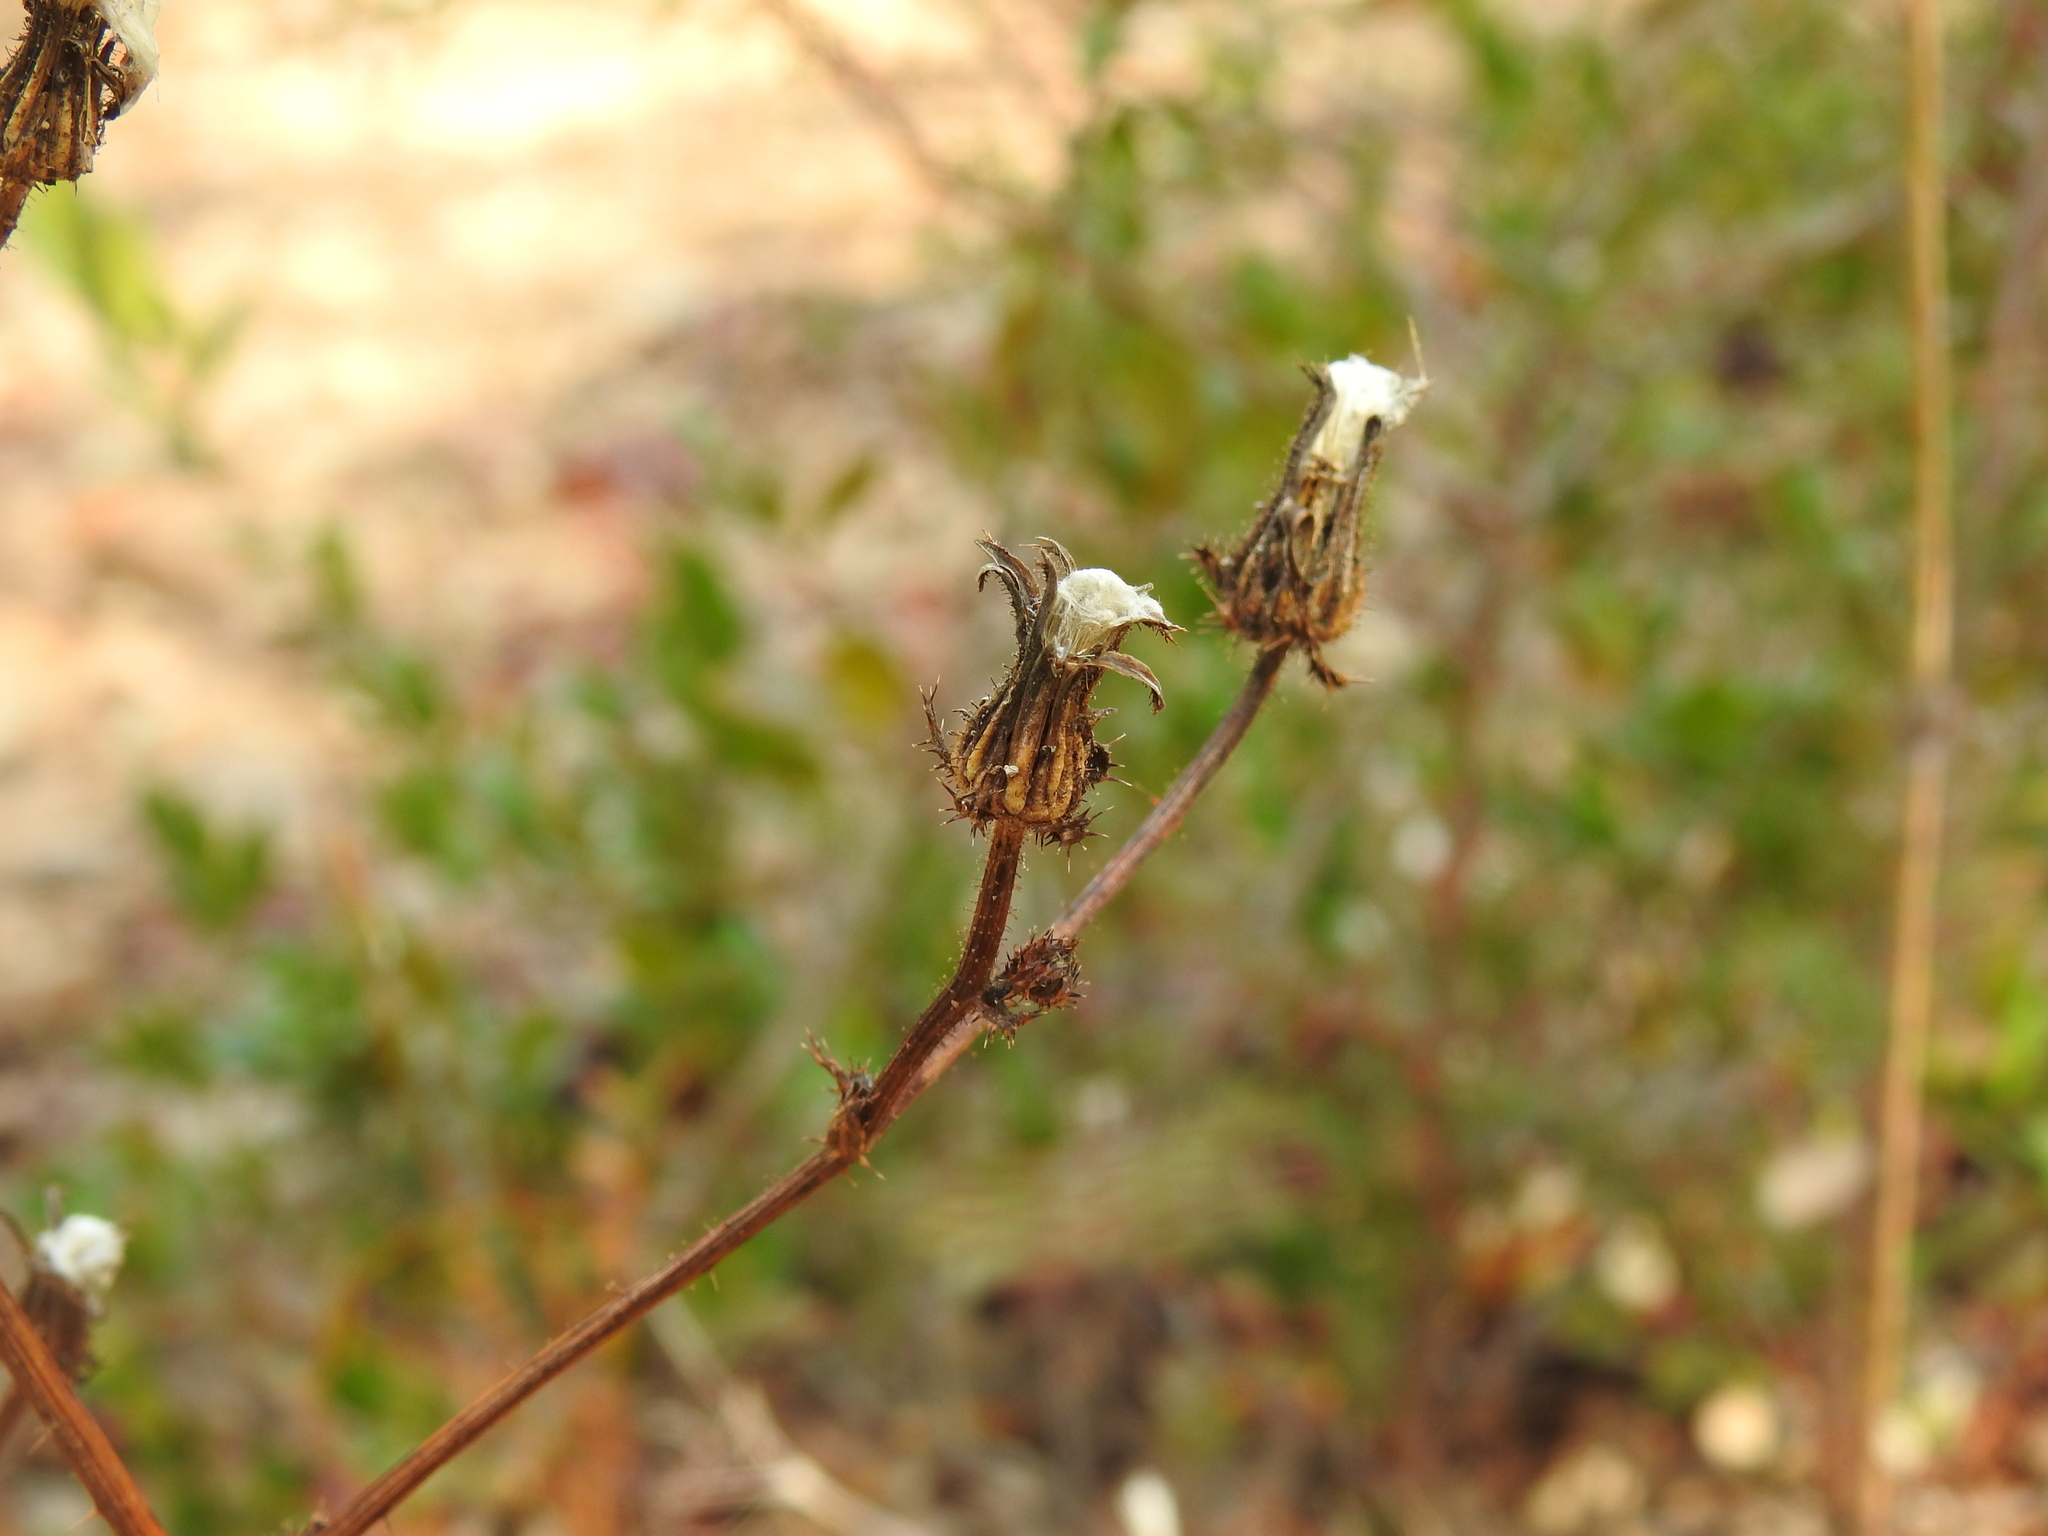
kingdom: Plantae
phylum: Tracheophyta
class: Magnoliopsida
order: Asterales
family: Asteraceae
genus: Helminthotheca
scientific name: Helminthotheca spinosa
